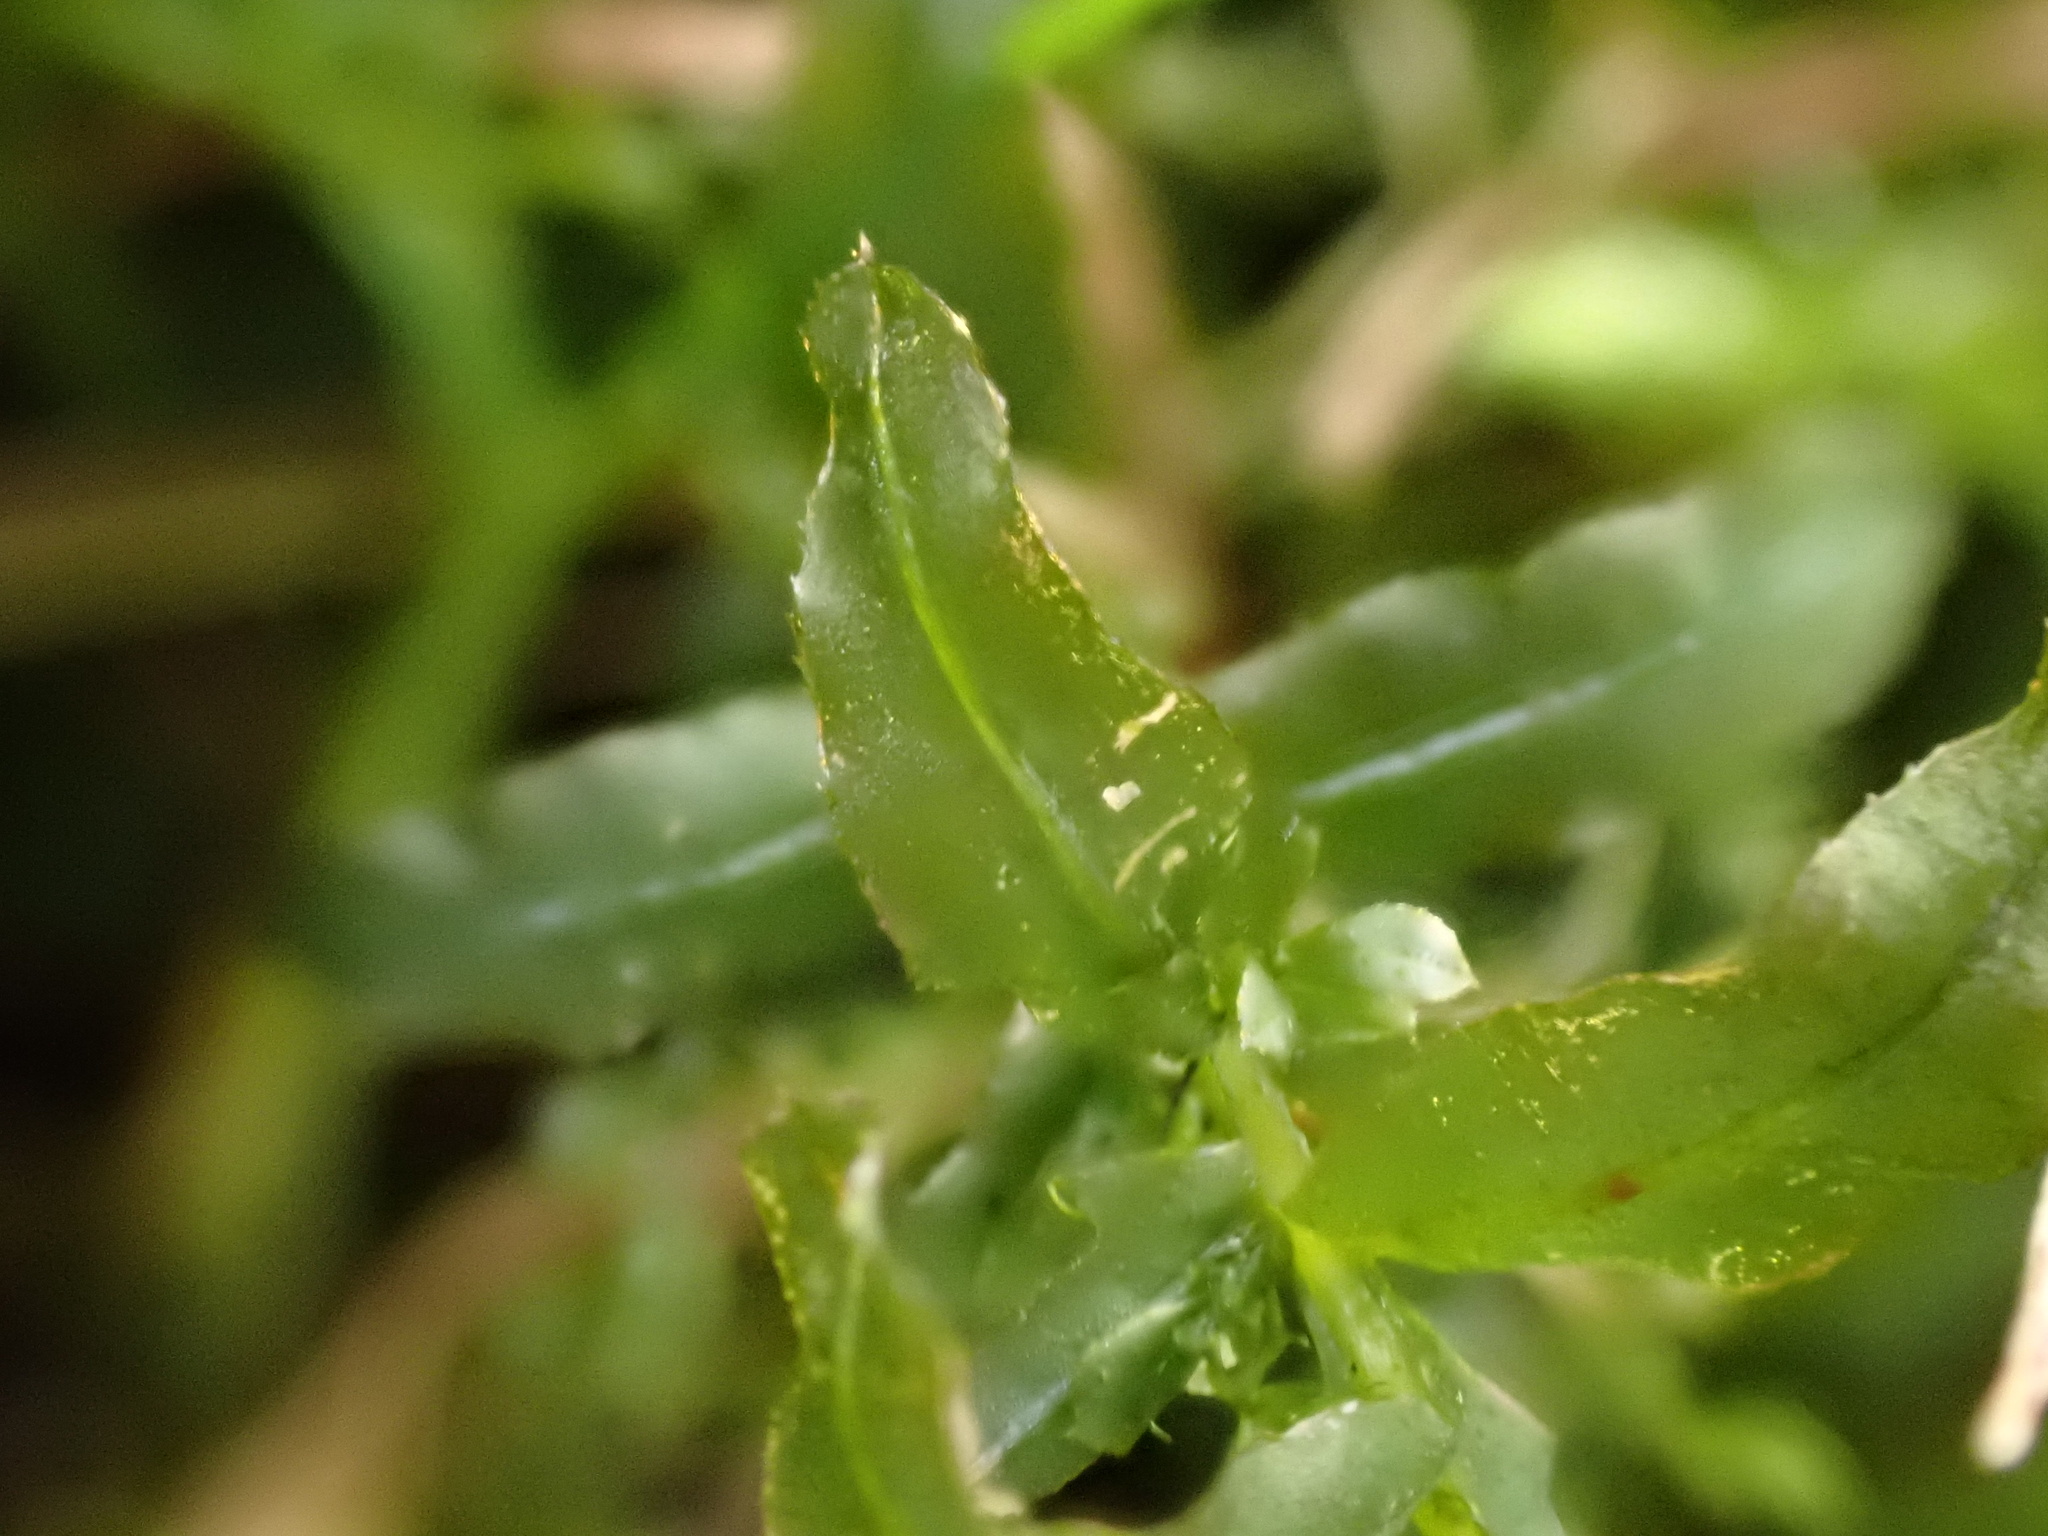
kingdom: Plantae
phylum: Bryophyta
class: Bryopsida
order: Bryales
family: Mniaceae
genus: Plagiomnium
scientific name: Plagiomnium undulatum
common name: Hart's-tongue thyme-moss
